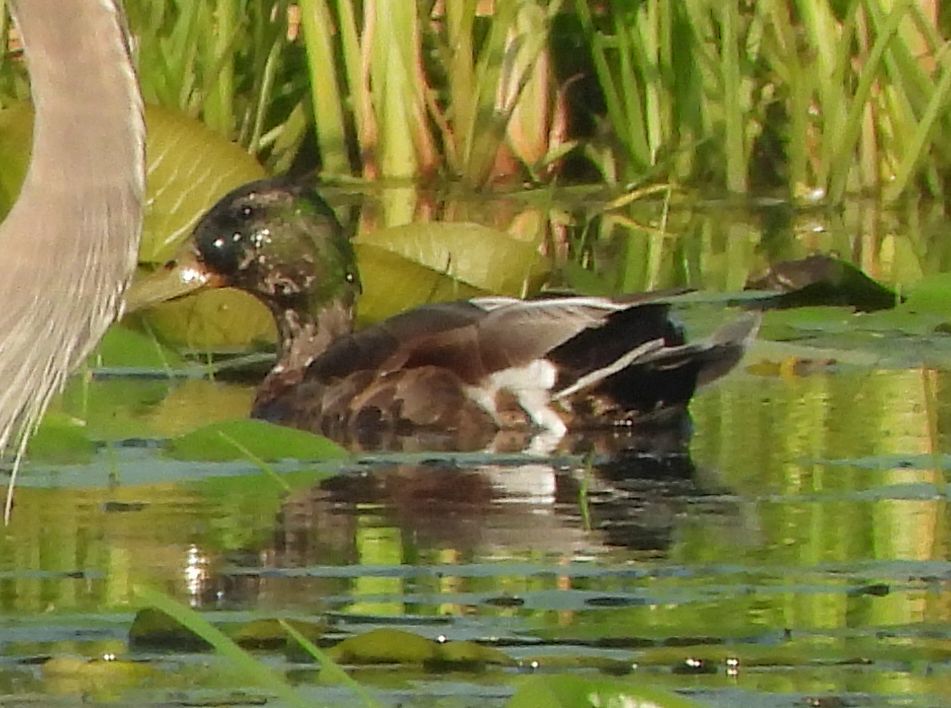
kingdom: Animalia
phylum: Chordata
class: Aves
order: Anseriformes
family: Anatidae
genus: Anas
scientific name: Anas platyrhynchos
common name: Mallard
